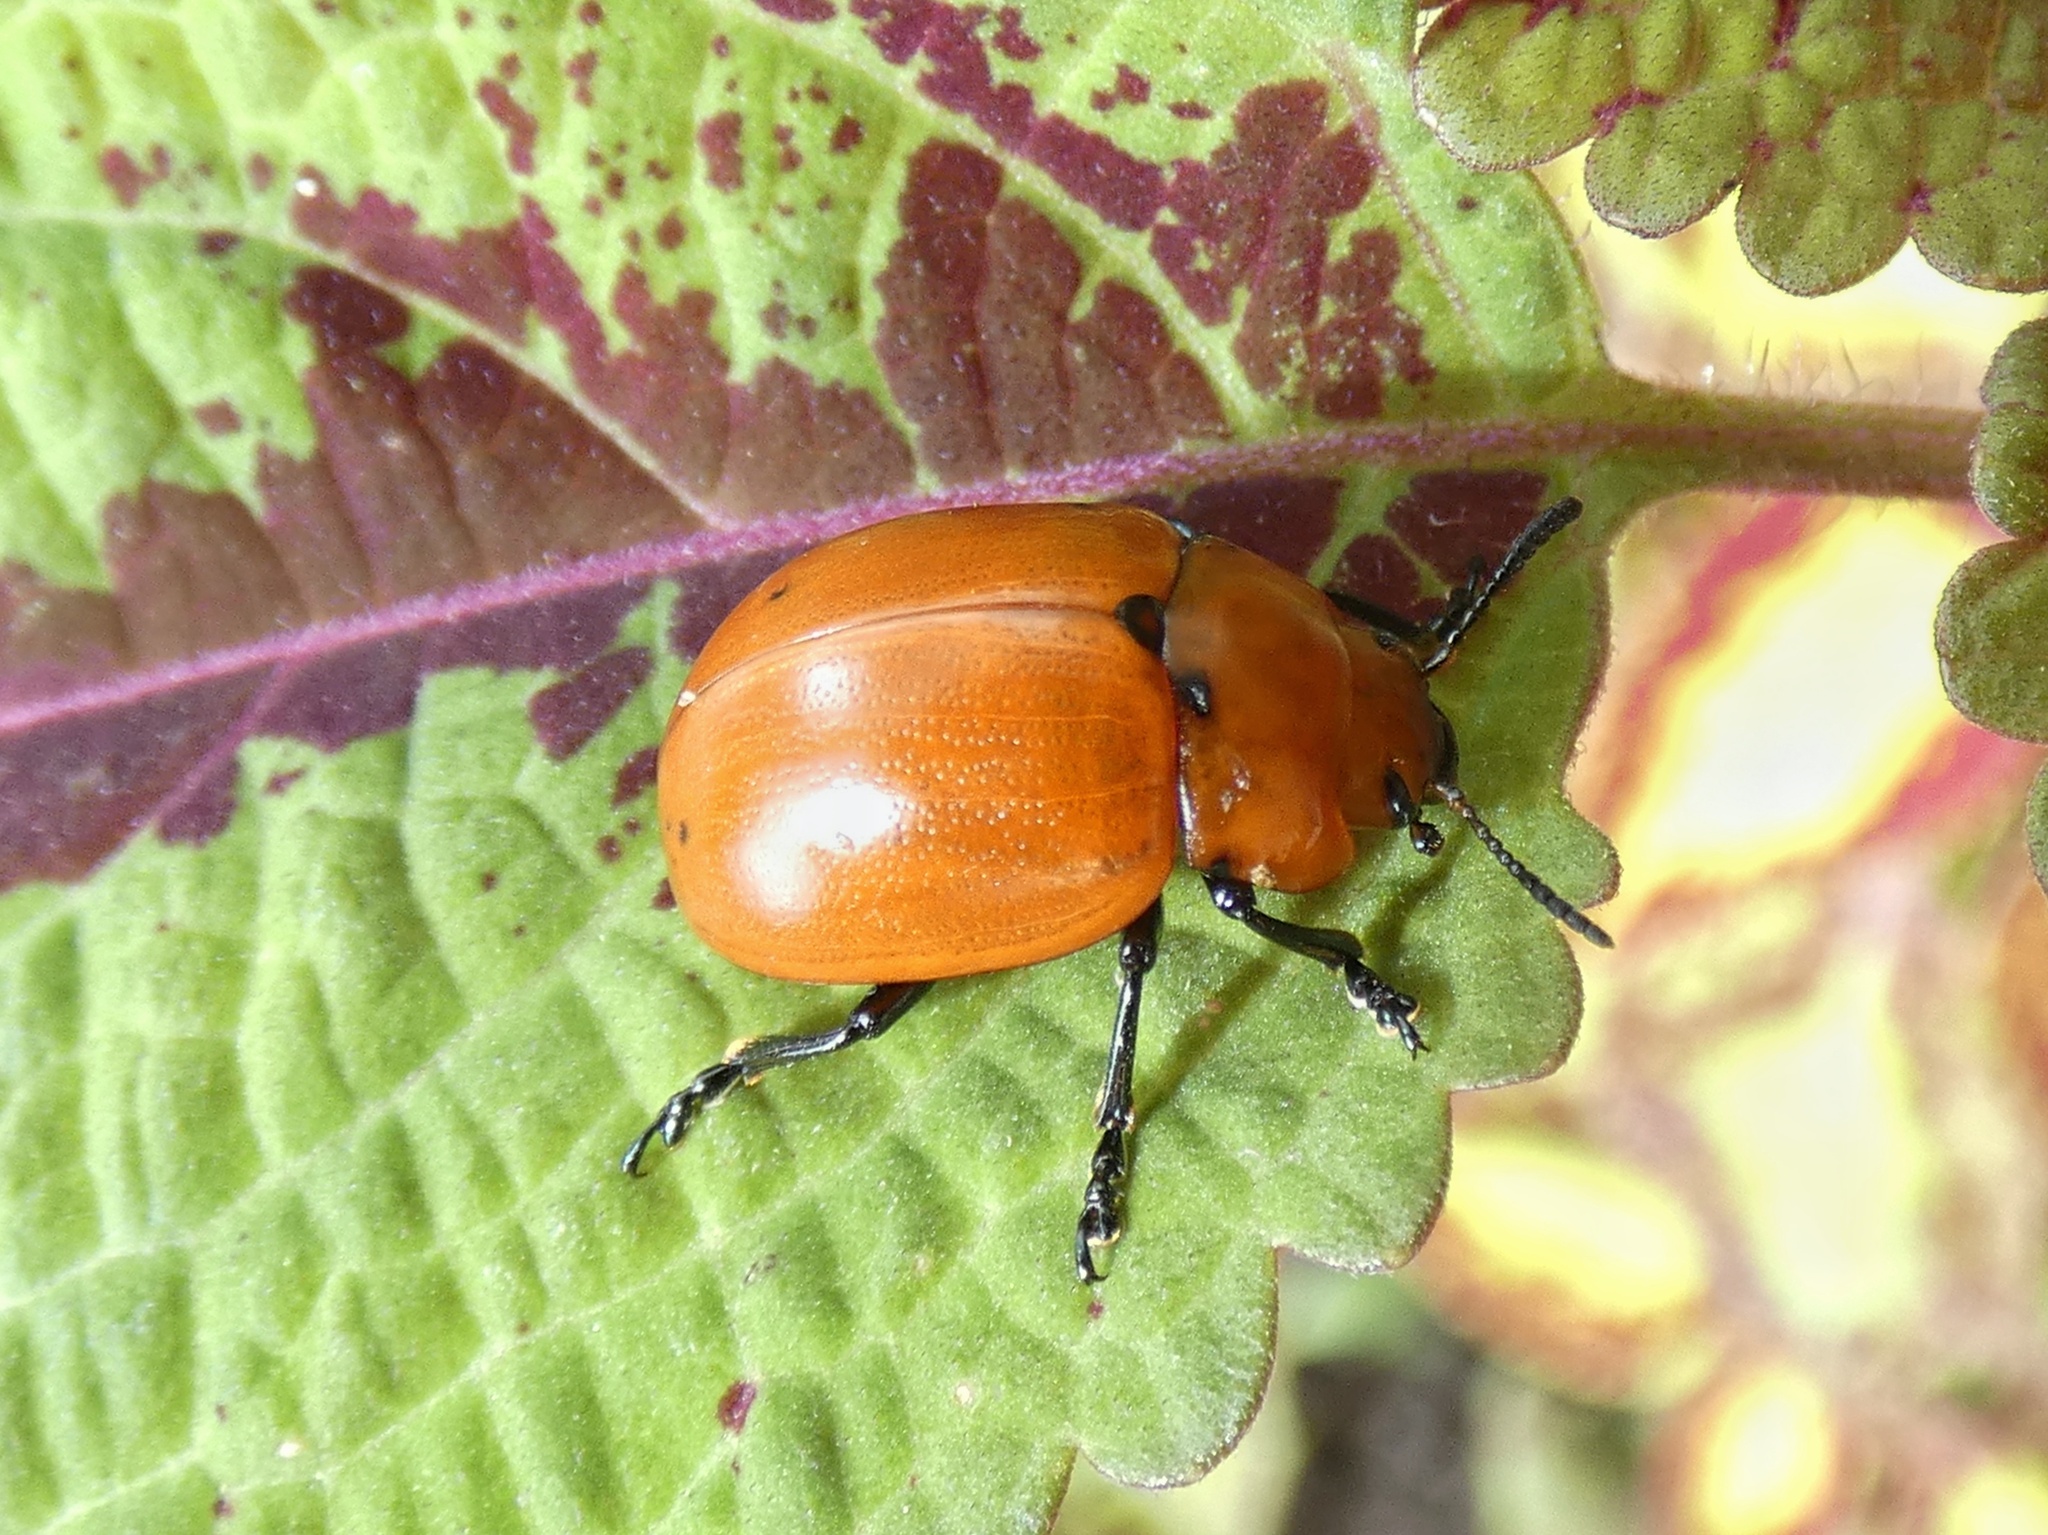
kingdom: Animalia
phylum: Arthropoda
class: Insecta
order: Coleoptera
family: Chrysomelidae
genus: Leptinotarsa
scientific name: Leptinotarsa rubiginosa
